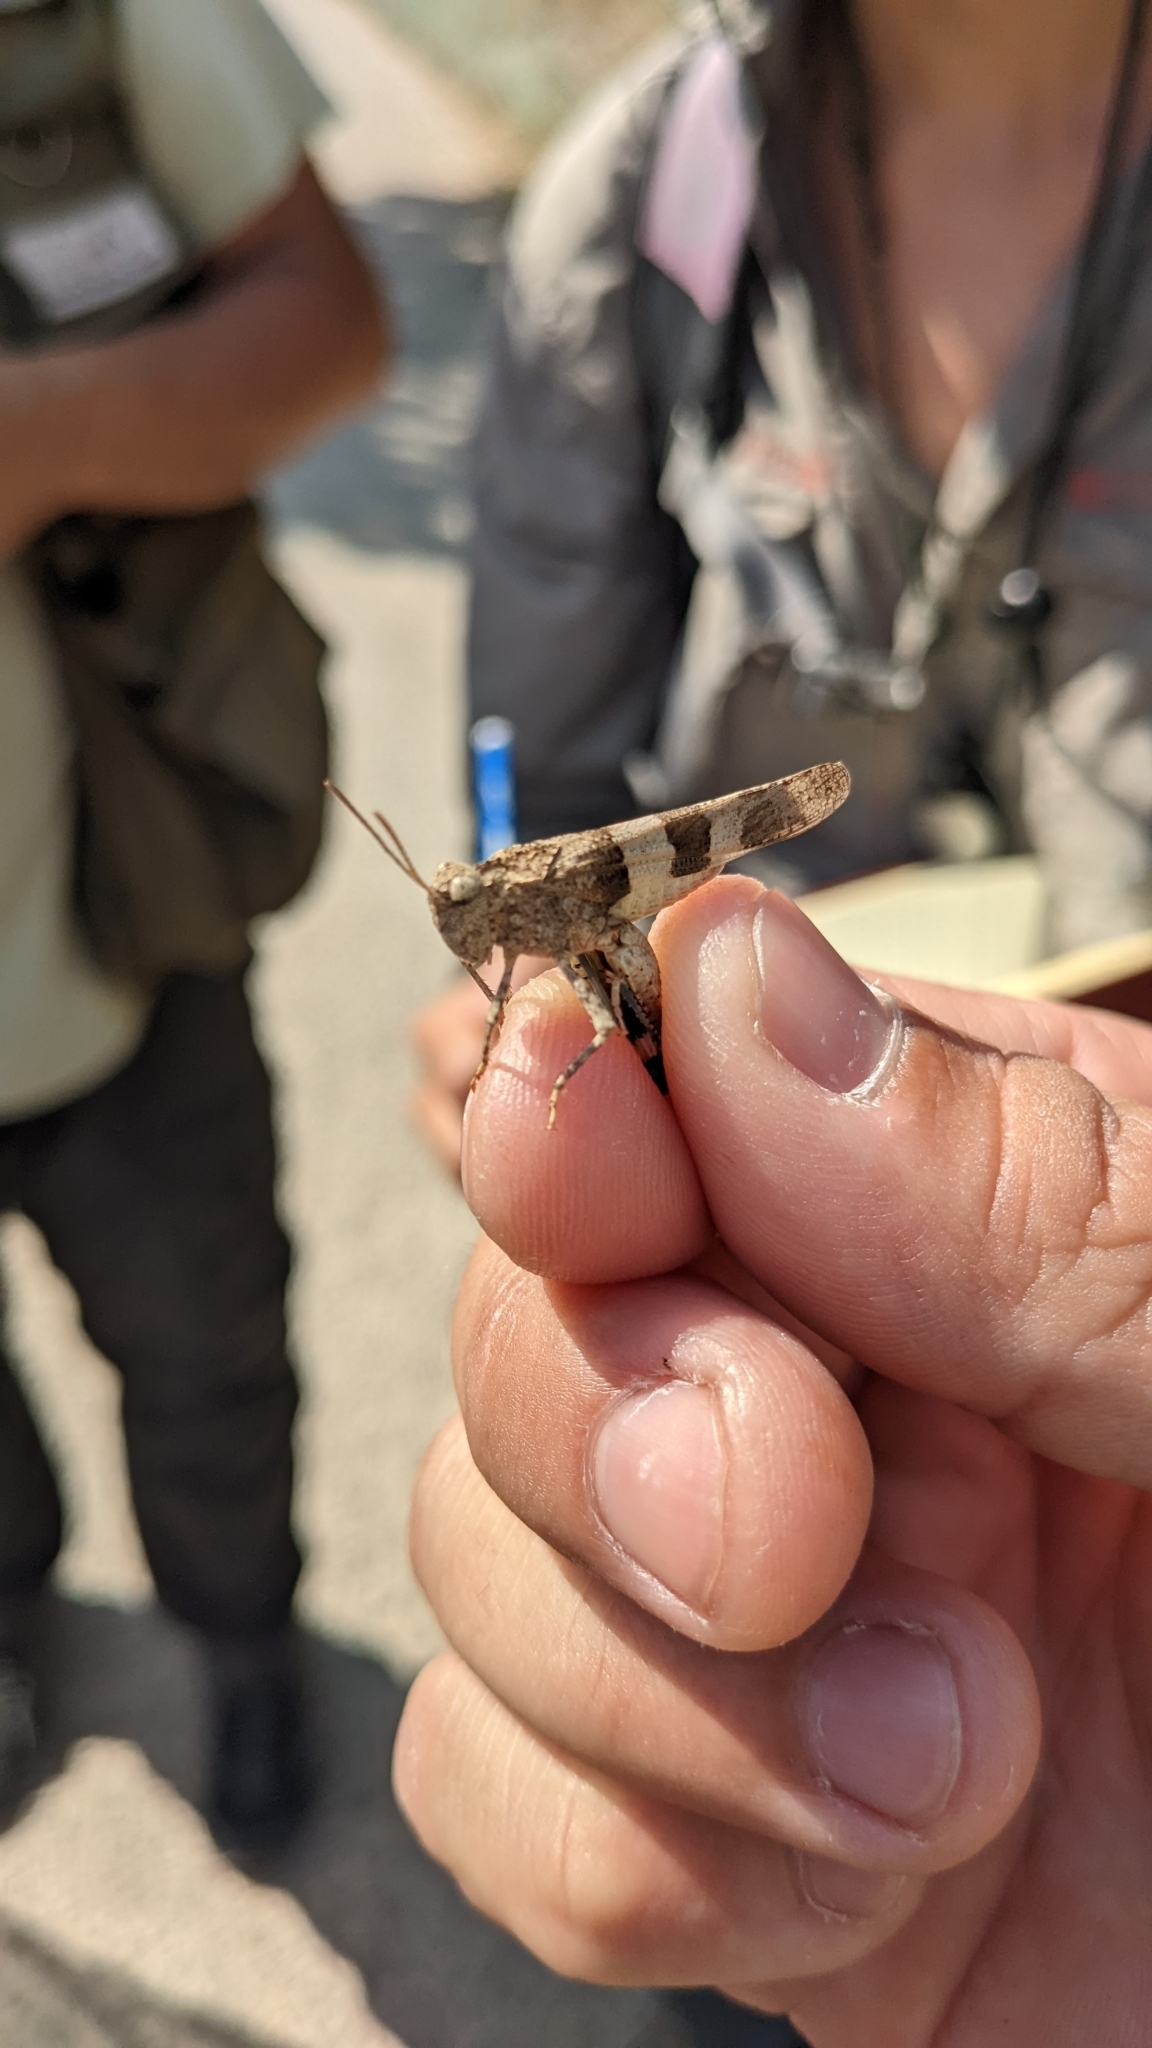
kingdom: Animalia
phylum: Arthropoda
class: Insecta
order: Orthoptera
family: Acrididae
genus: Oedipoda
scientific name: Oedipoda caerulescens
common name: Blue-winged grasshopper
